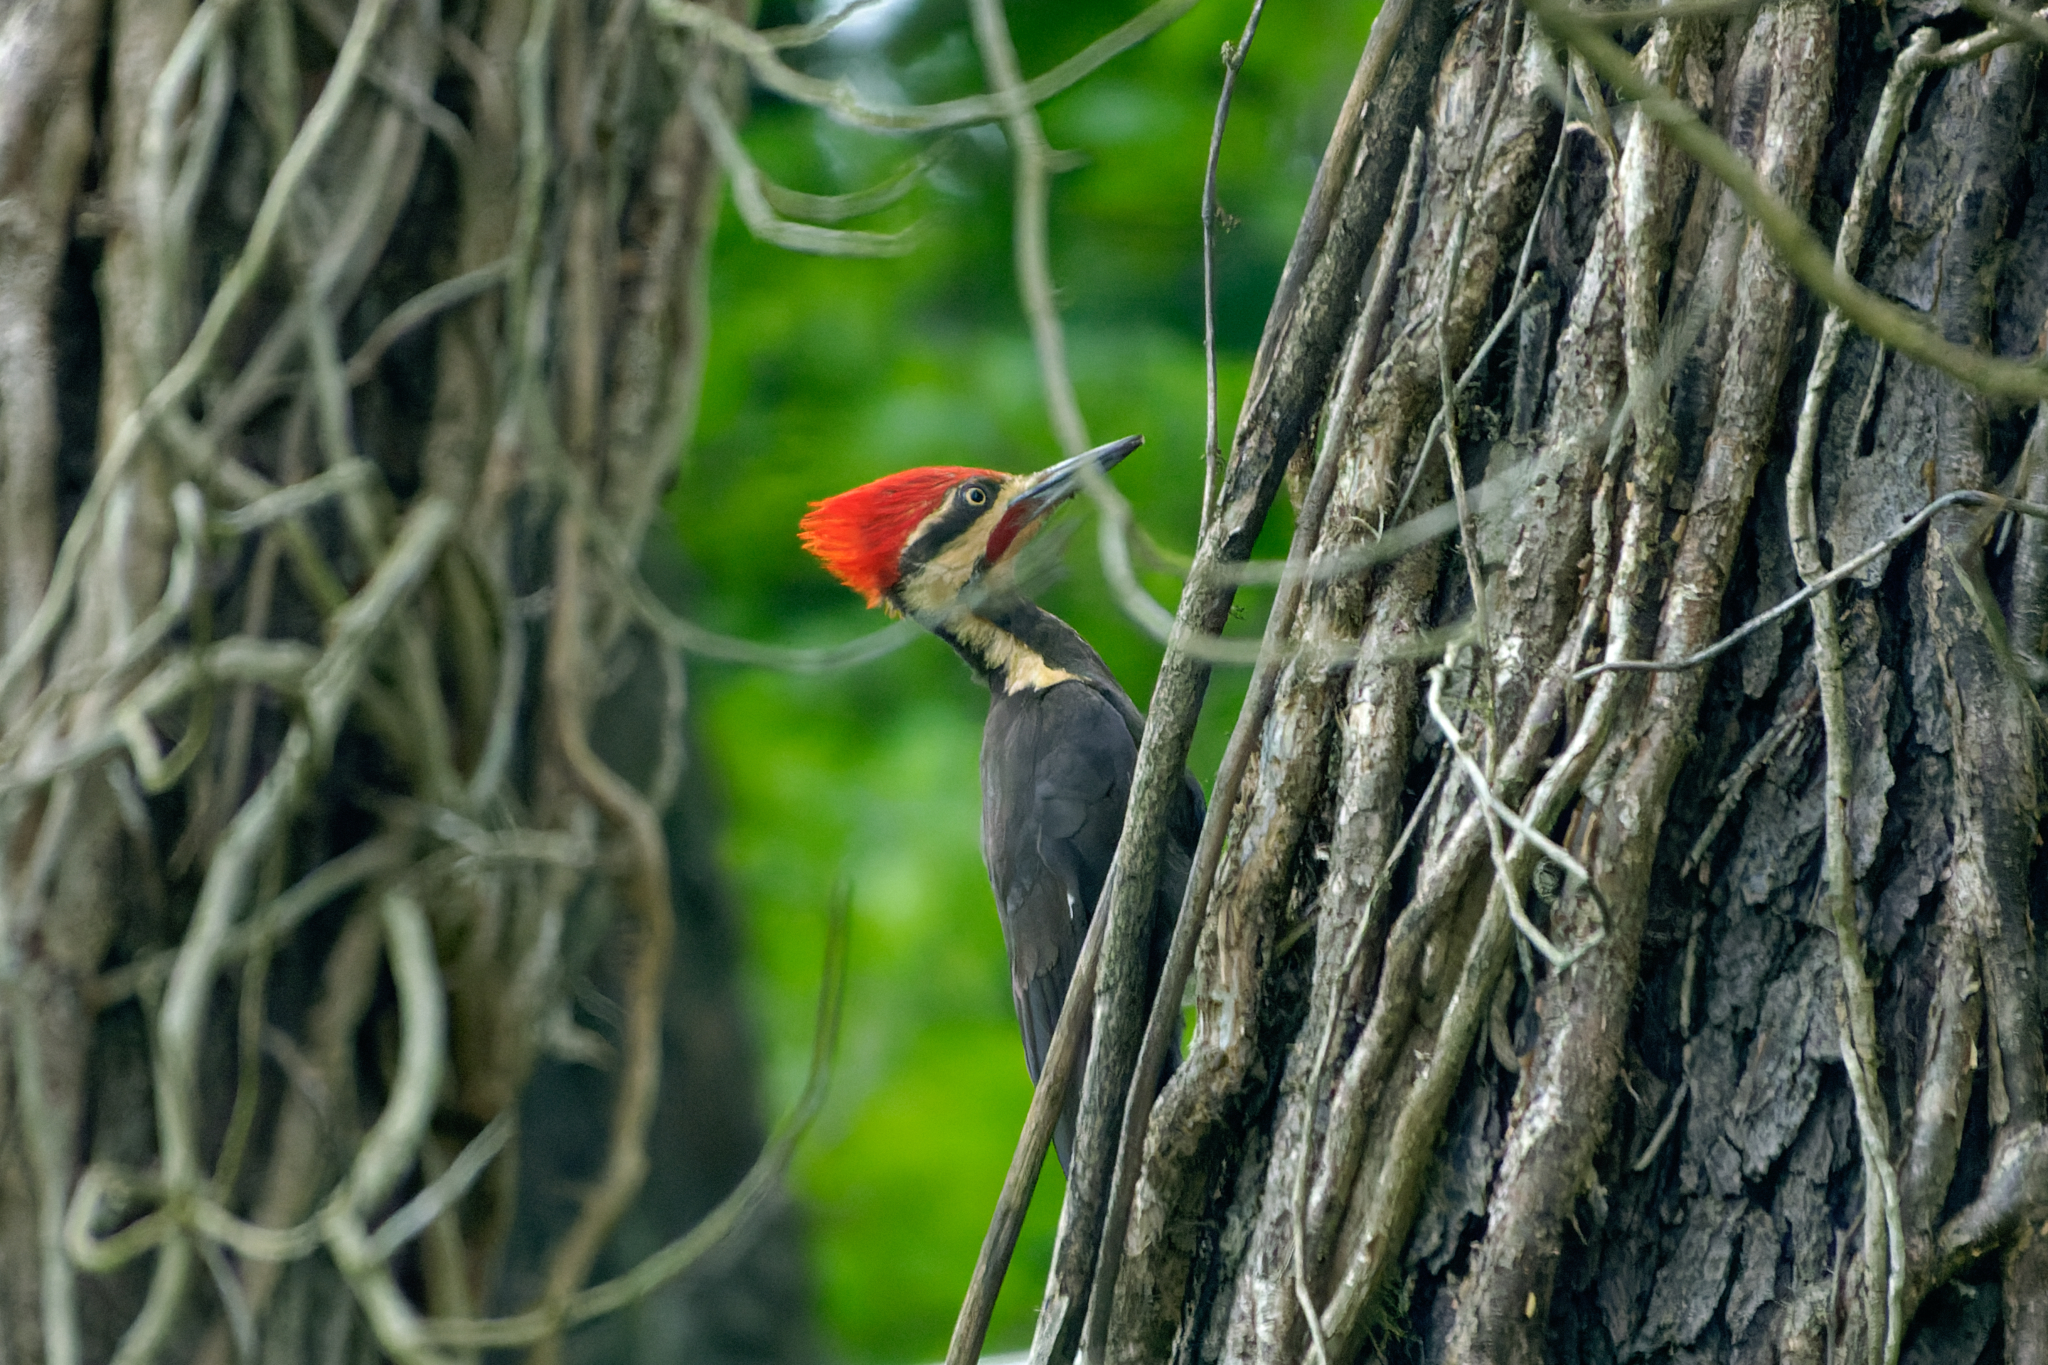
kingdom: Animalia
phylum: Chordata
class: Aves
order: Piciformes
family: Picidae
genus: Dryocopus
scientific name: Dryocopus pileatus
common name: Pileated woodpecker
